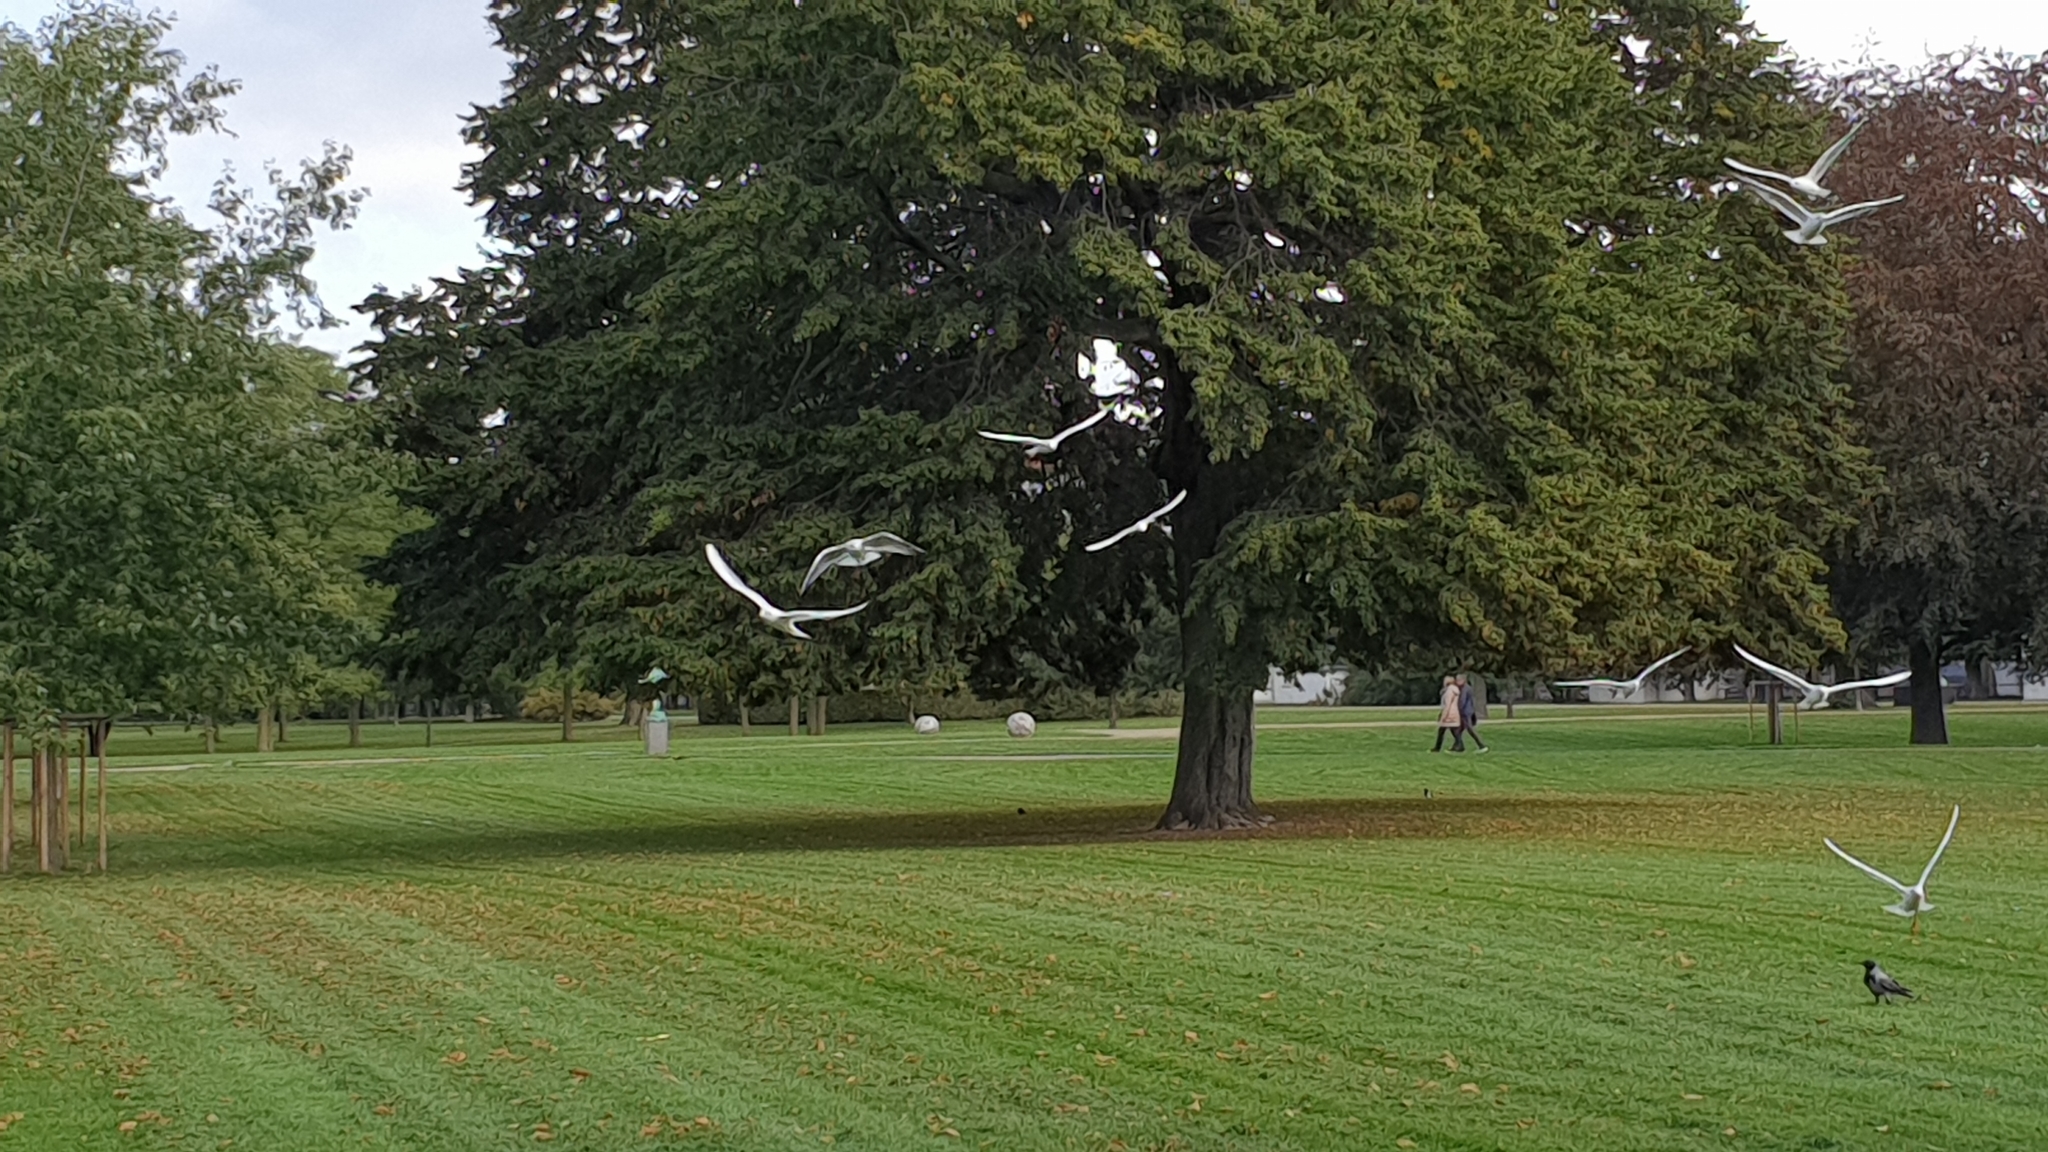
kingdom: Plantae
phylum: Tracheophyta
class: Magnoliopsida
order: Fagales
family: Fagaceae
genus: Quercus
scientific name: Quercus robur
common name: Pedunculate oak
